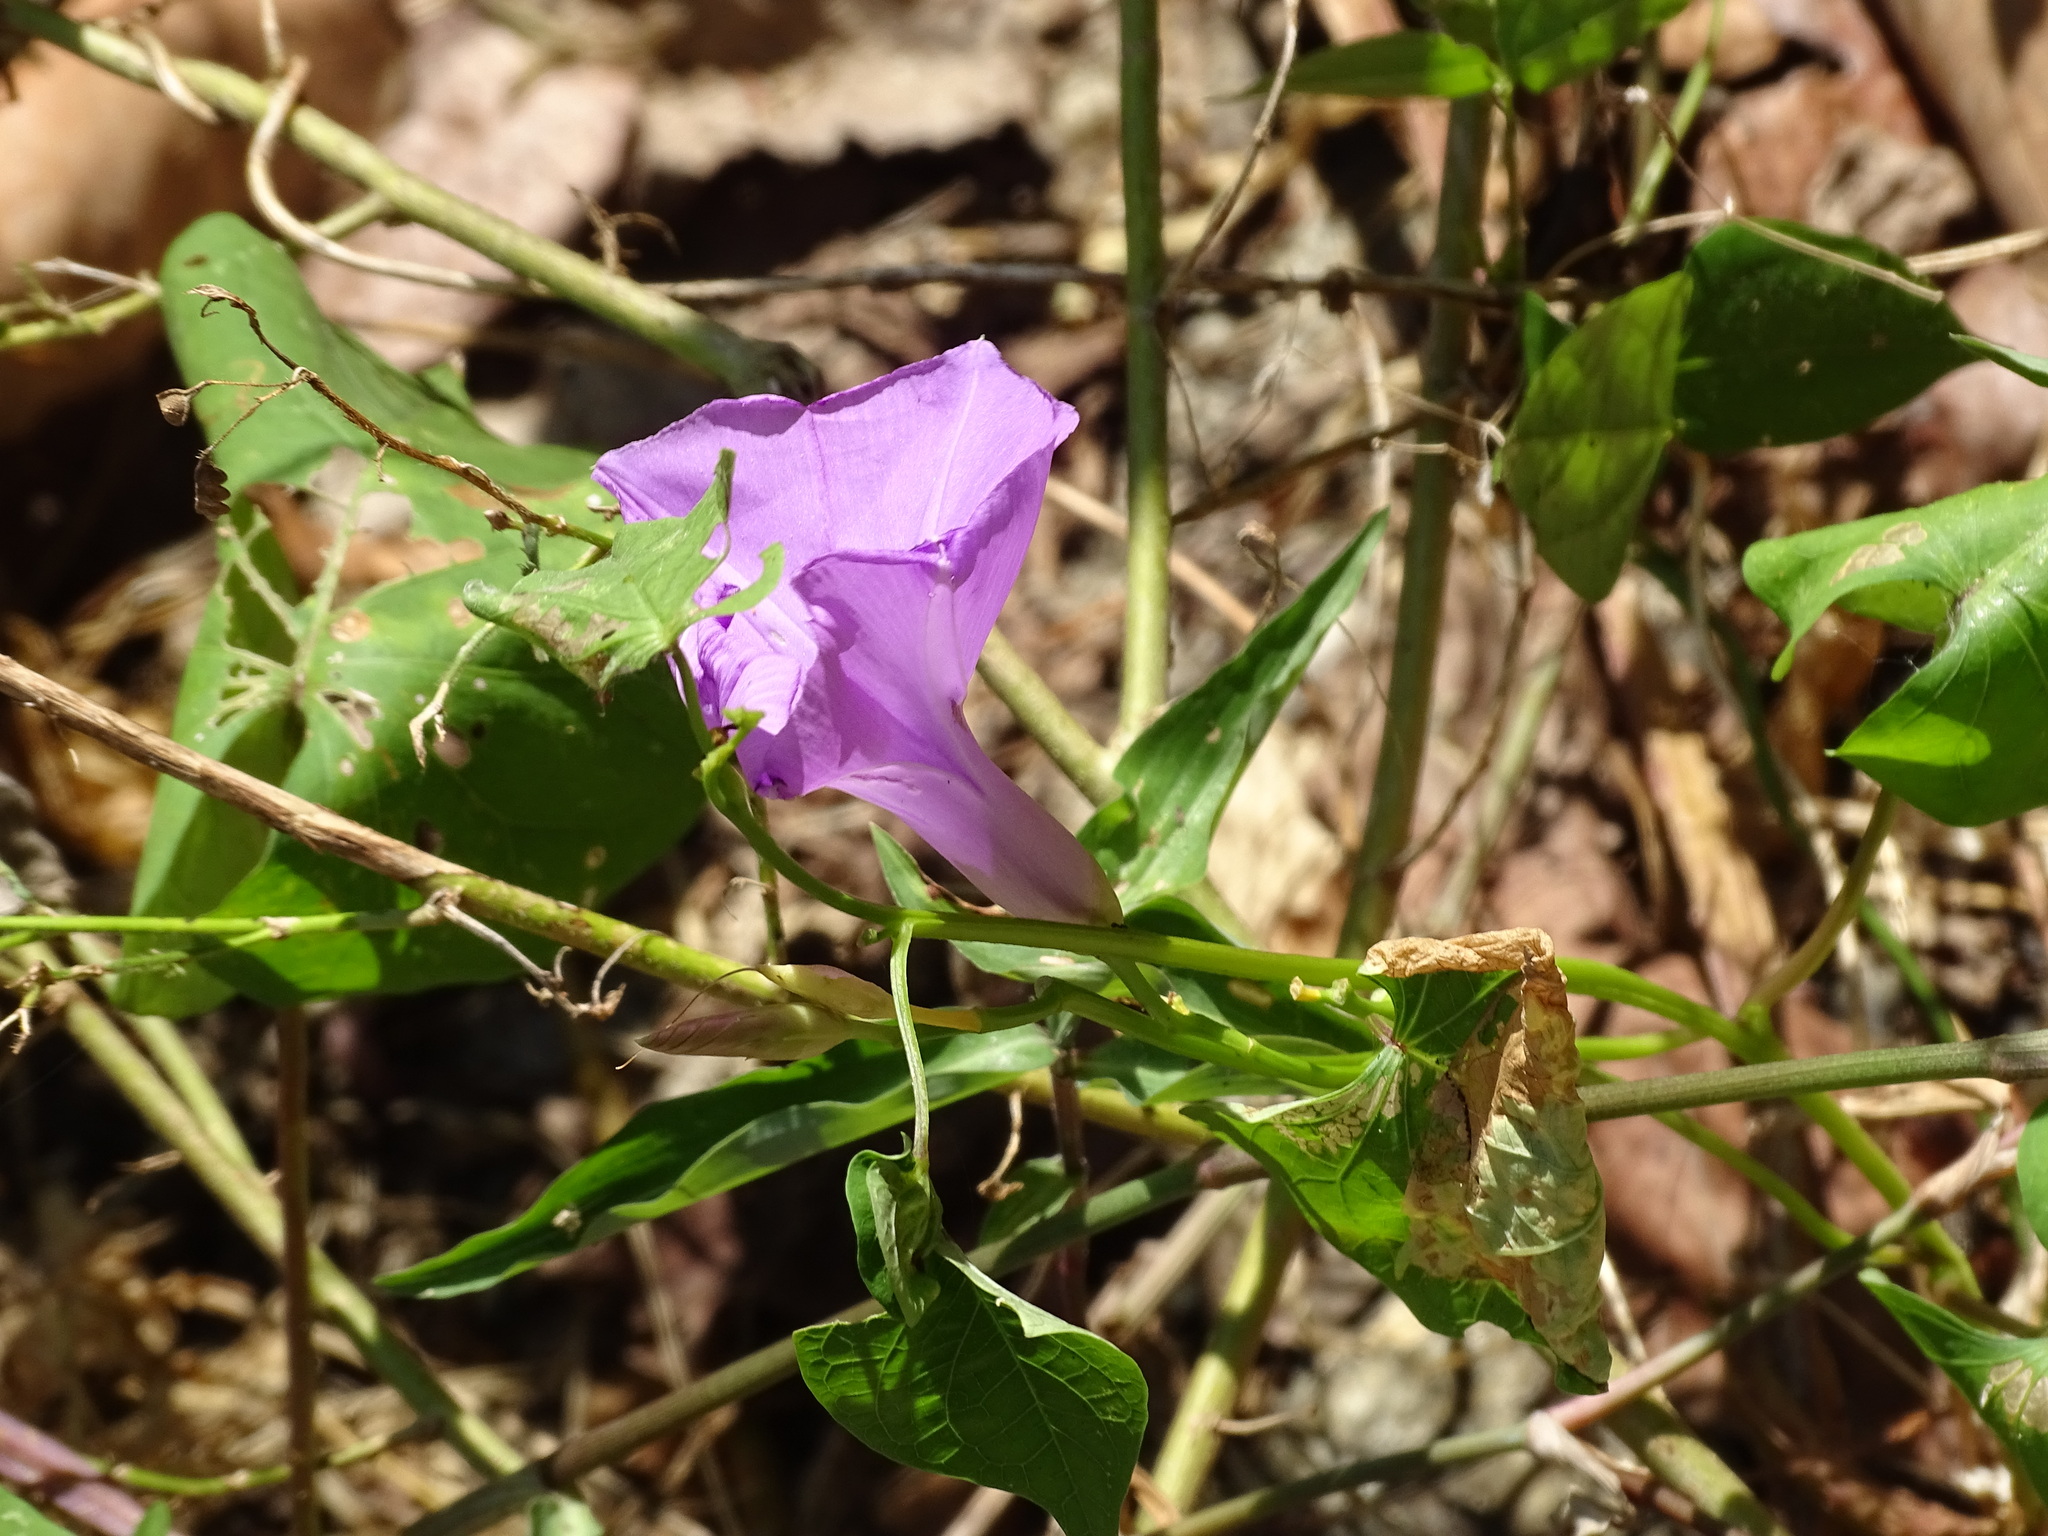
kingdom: Plantae
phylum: Tracheophyta
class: Magnoliopsida
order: Solanales
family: Convolvulaceae
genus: Ipomoea
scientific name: Ipomoea splendor-sylvae
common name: Morning glory
